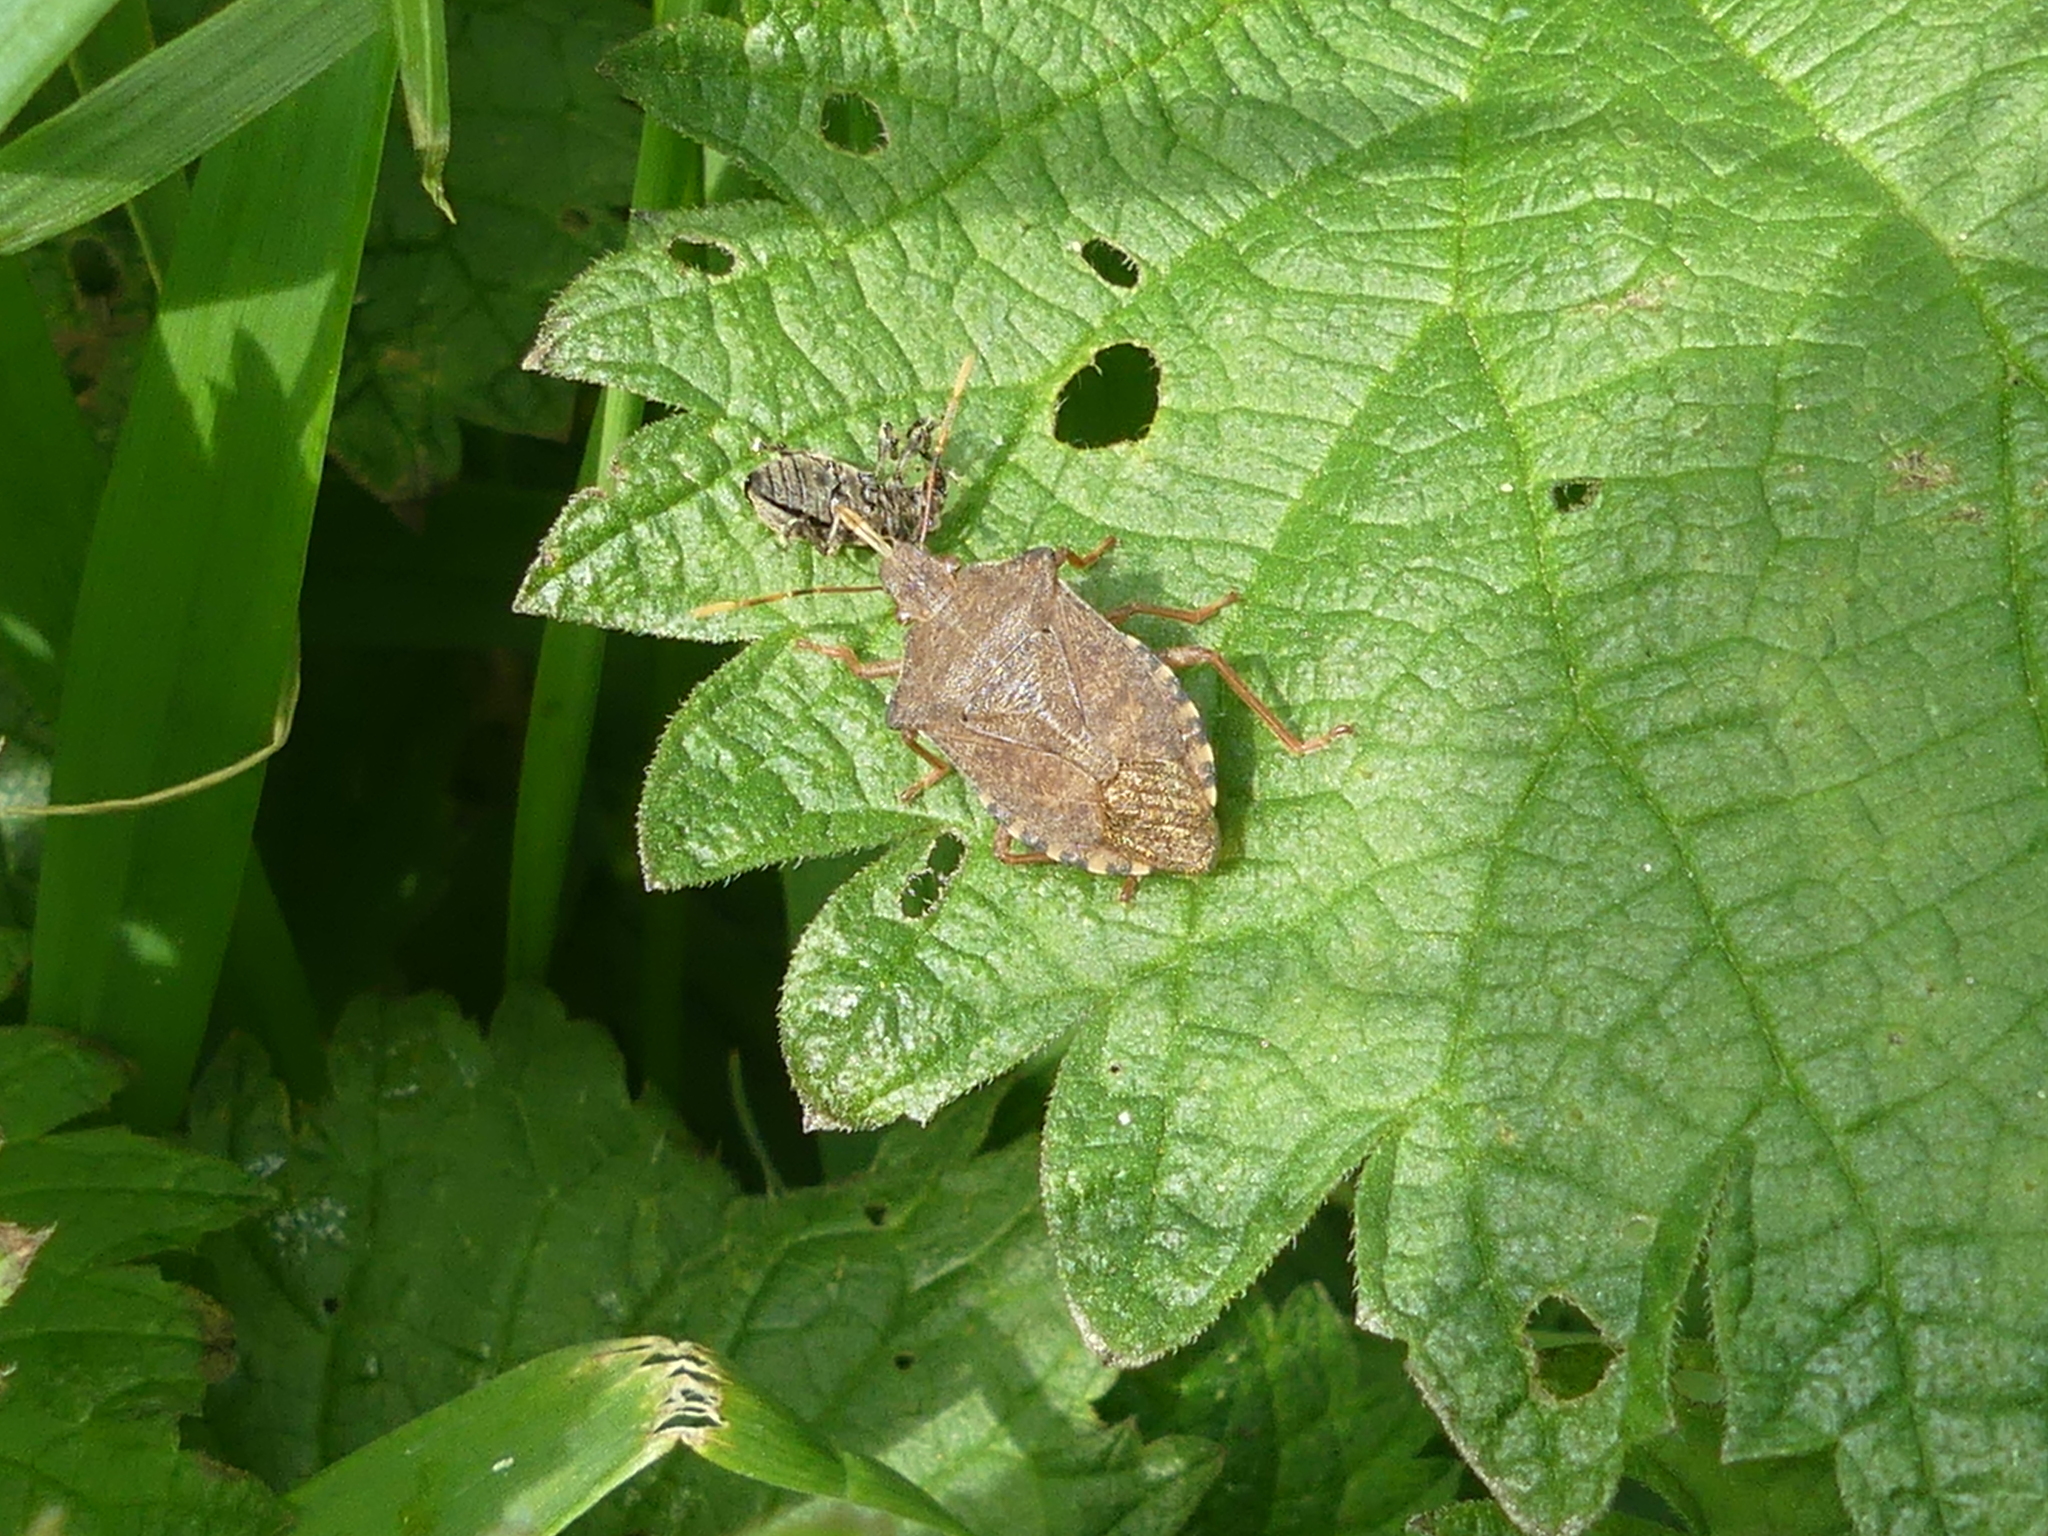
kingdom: Animalia
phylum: Arthropoda
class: Insecta
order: Hemiptera
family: Pentatomidae
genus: Arma
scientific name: Arma custos
